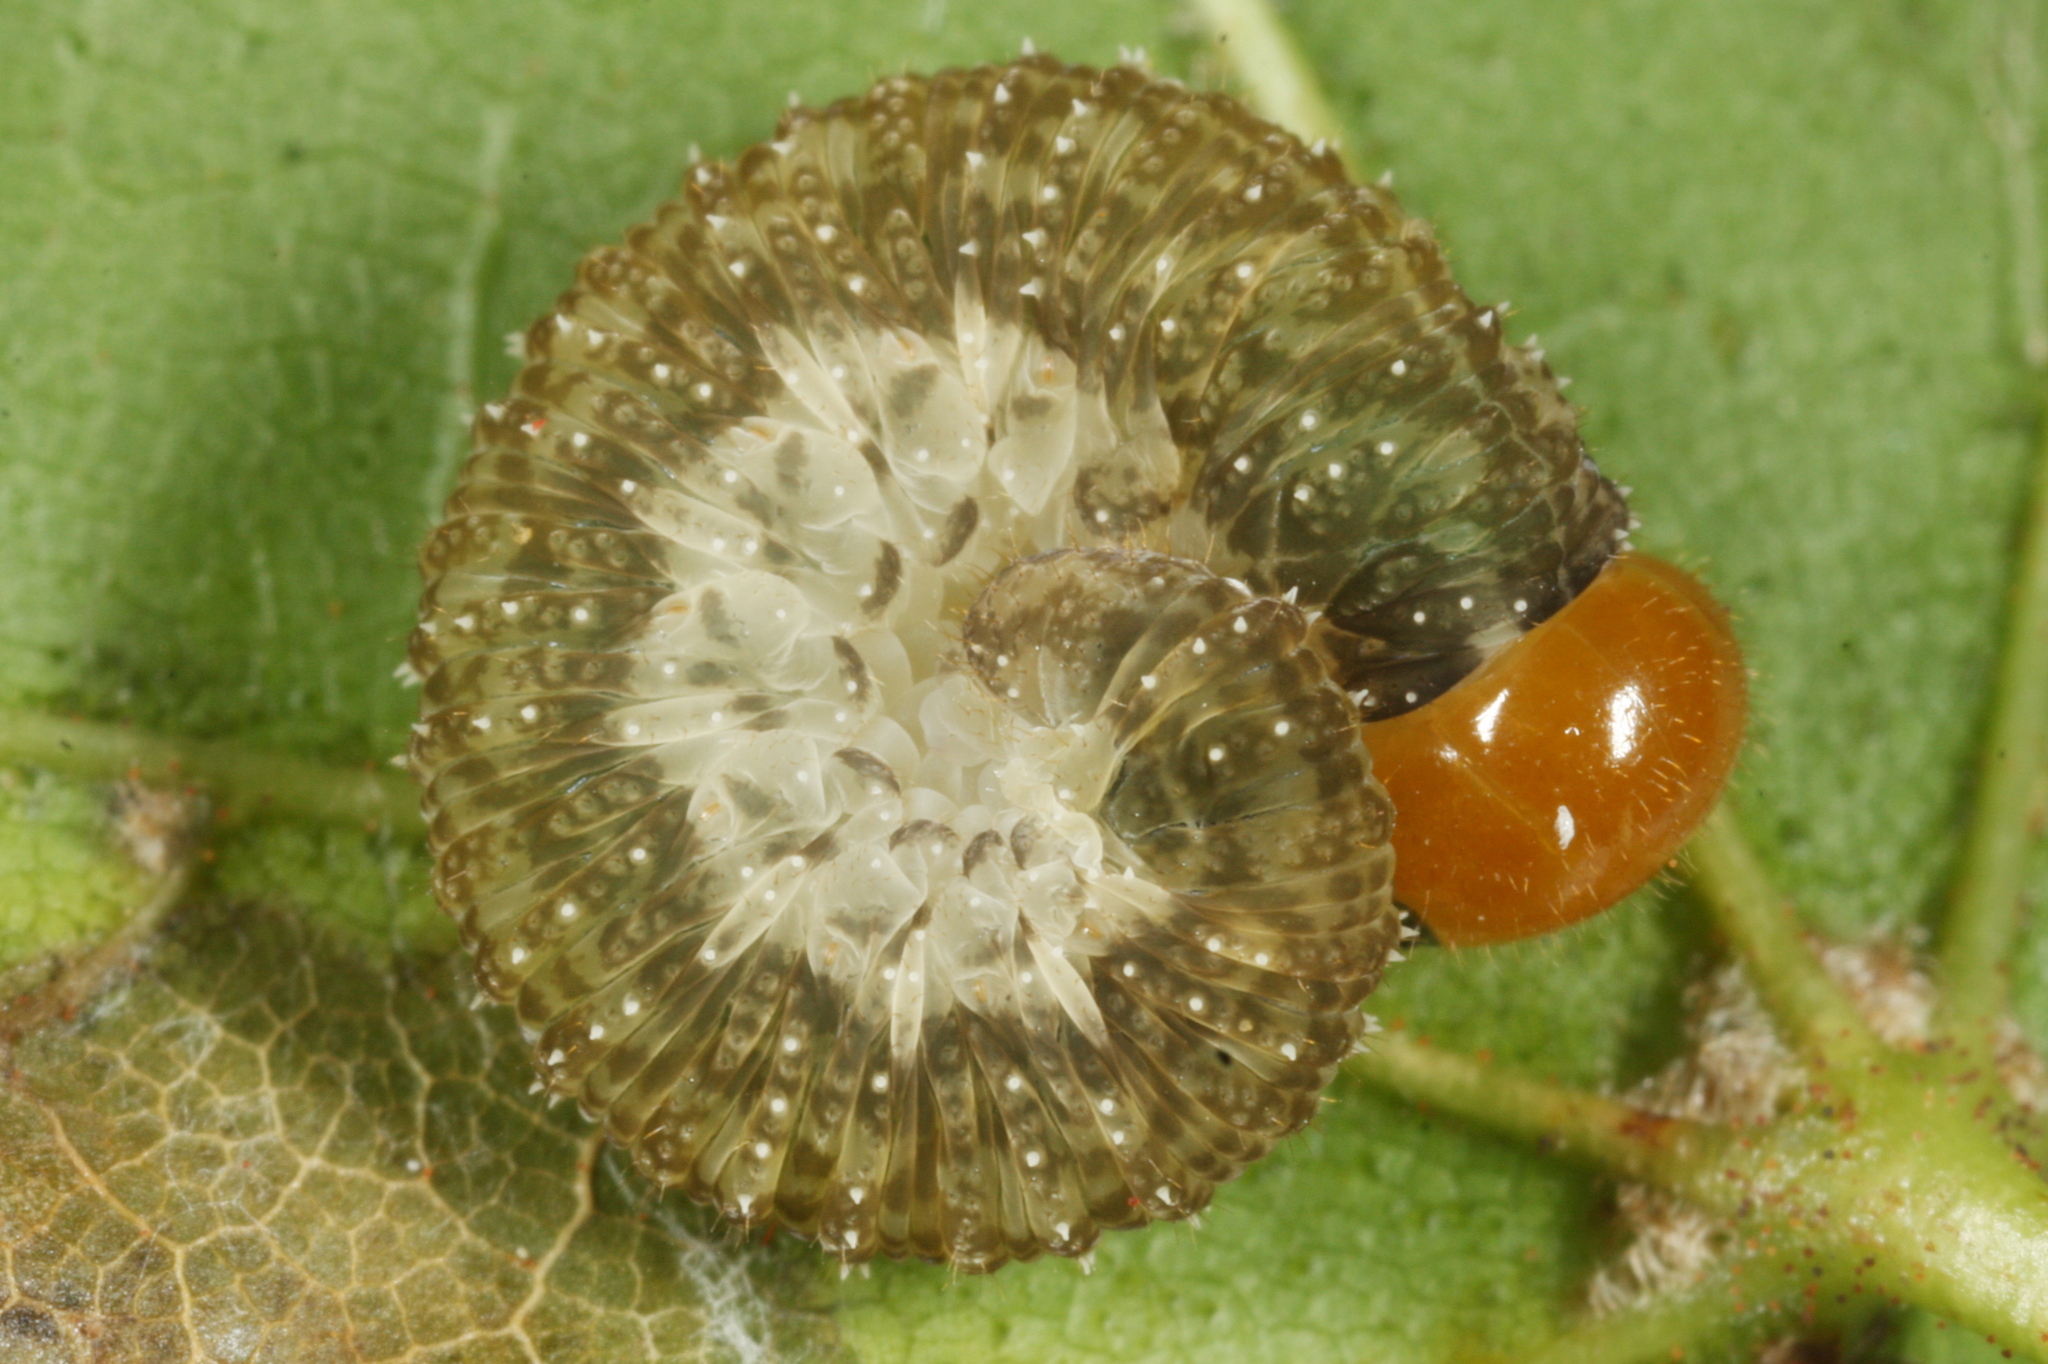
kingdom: Animalia
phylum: Arthropoda
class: Insecta
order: Hymenoptera
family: Tenthredinidae
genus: Tenthredo
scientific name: Tenthredo livida
